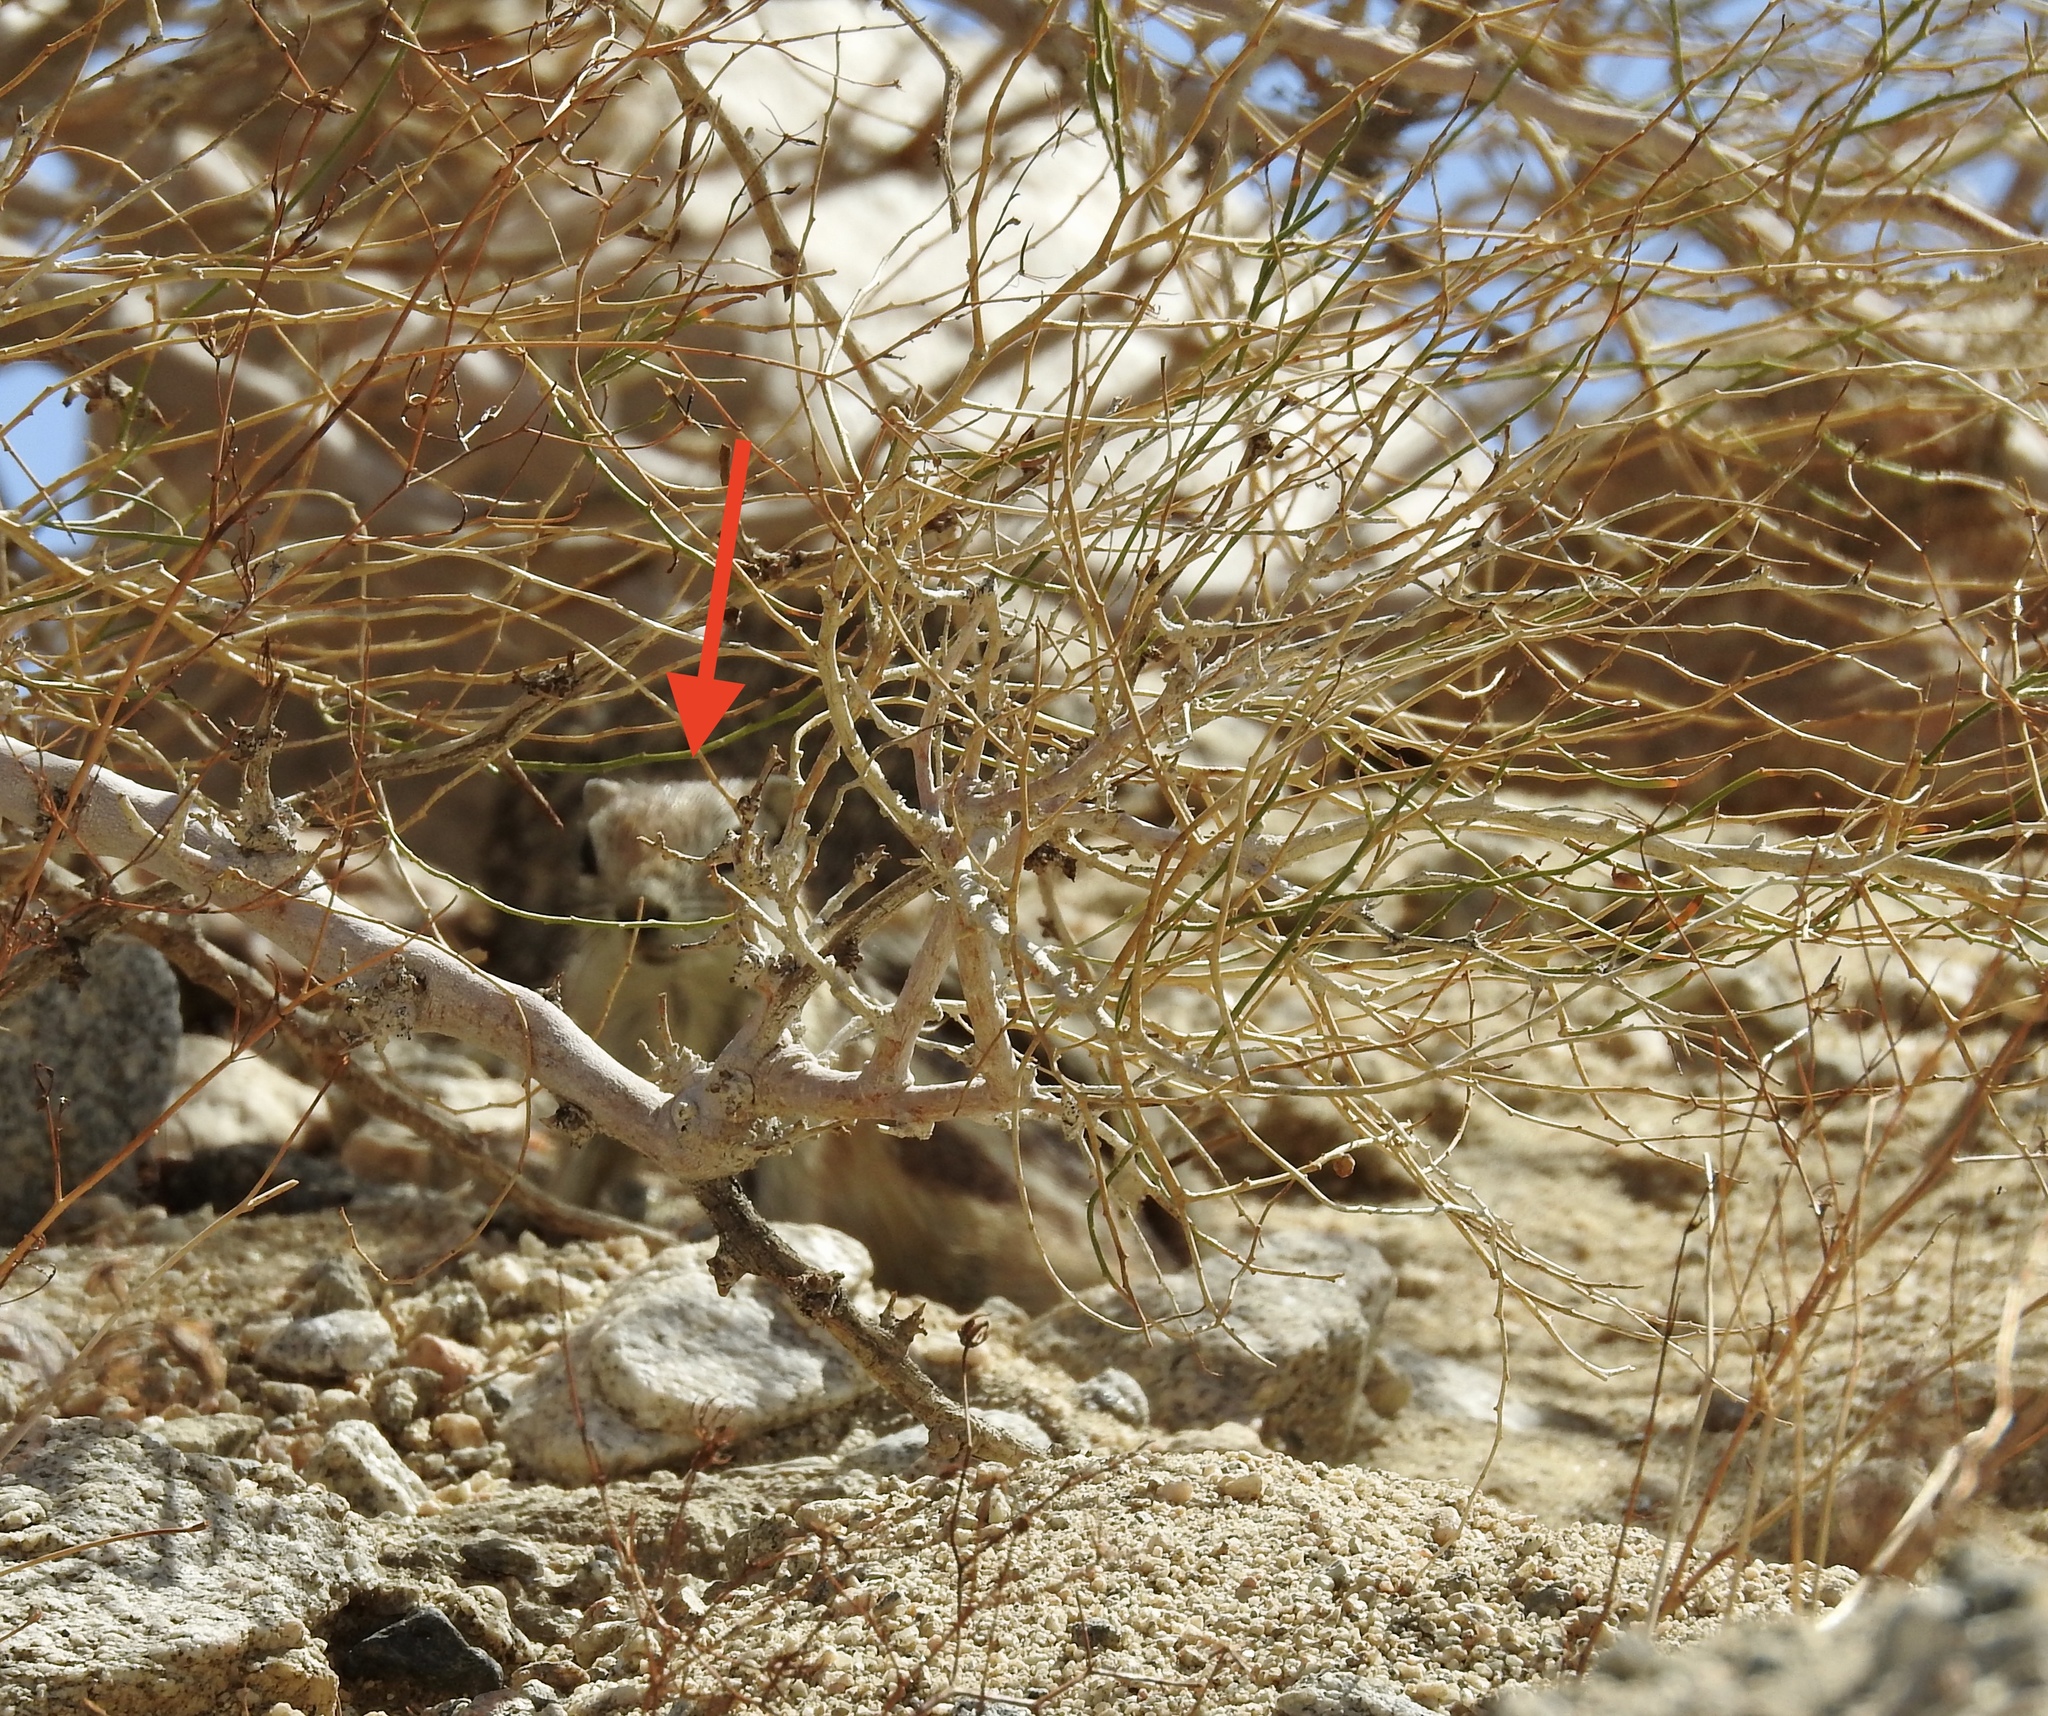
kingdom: Animalia
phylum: Chordata
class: Mammalia
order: Rodentia
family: Sciuridae
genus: Ammospermophilus
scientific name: Ammospermophilus leucurus
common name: White-tailed antelope squirrel
